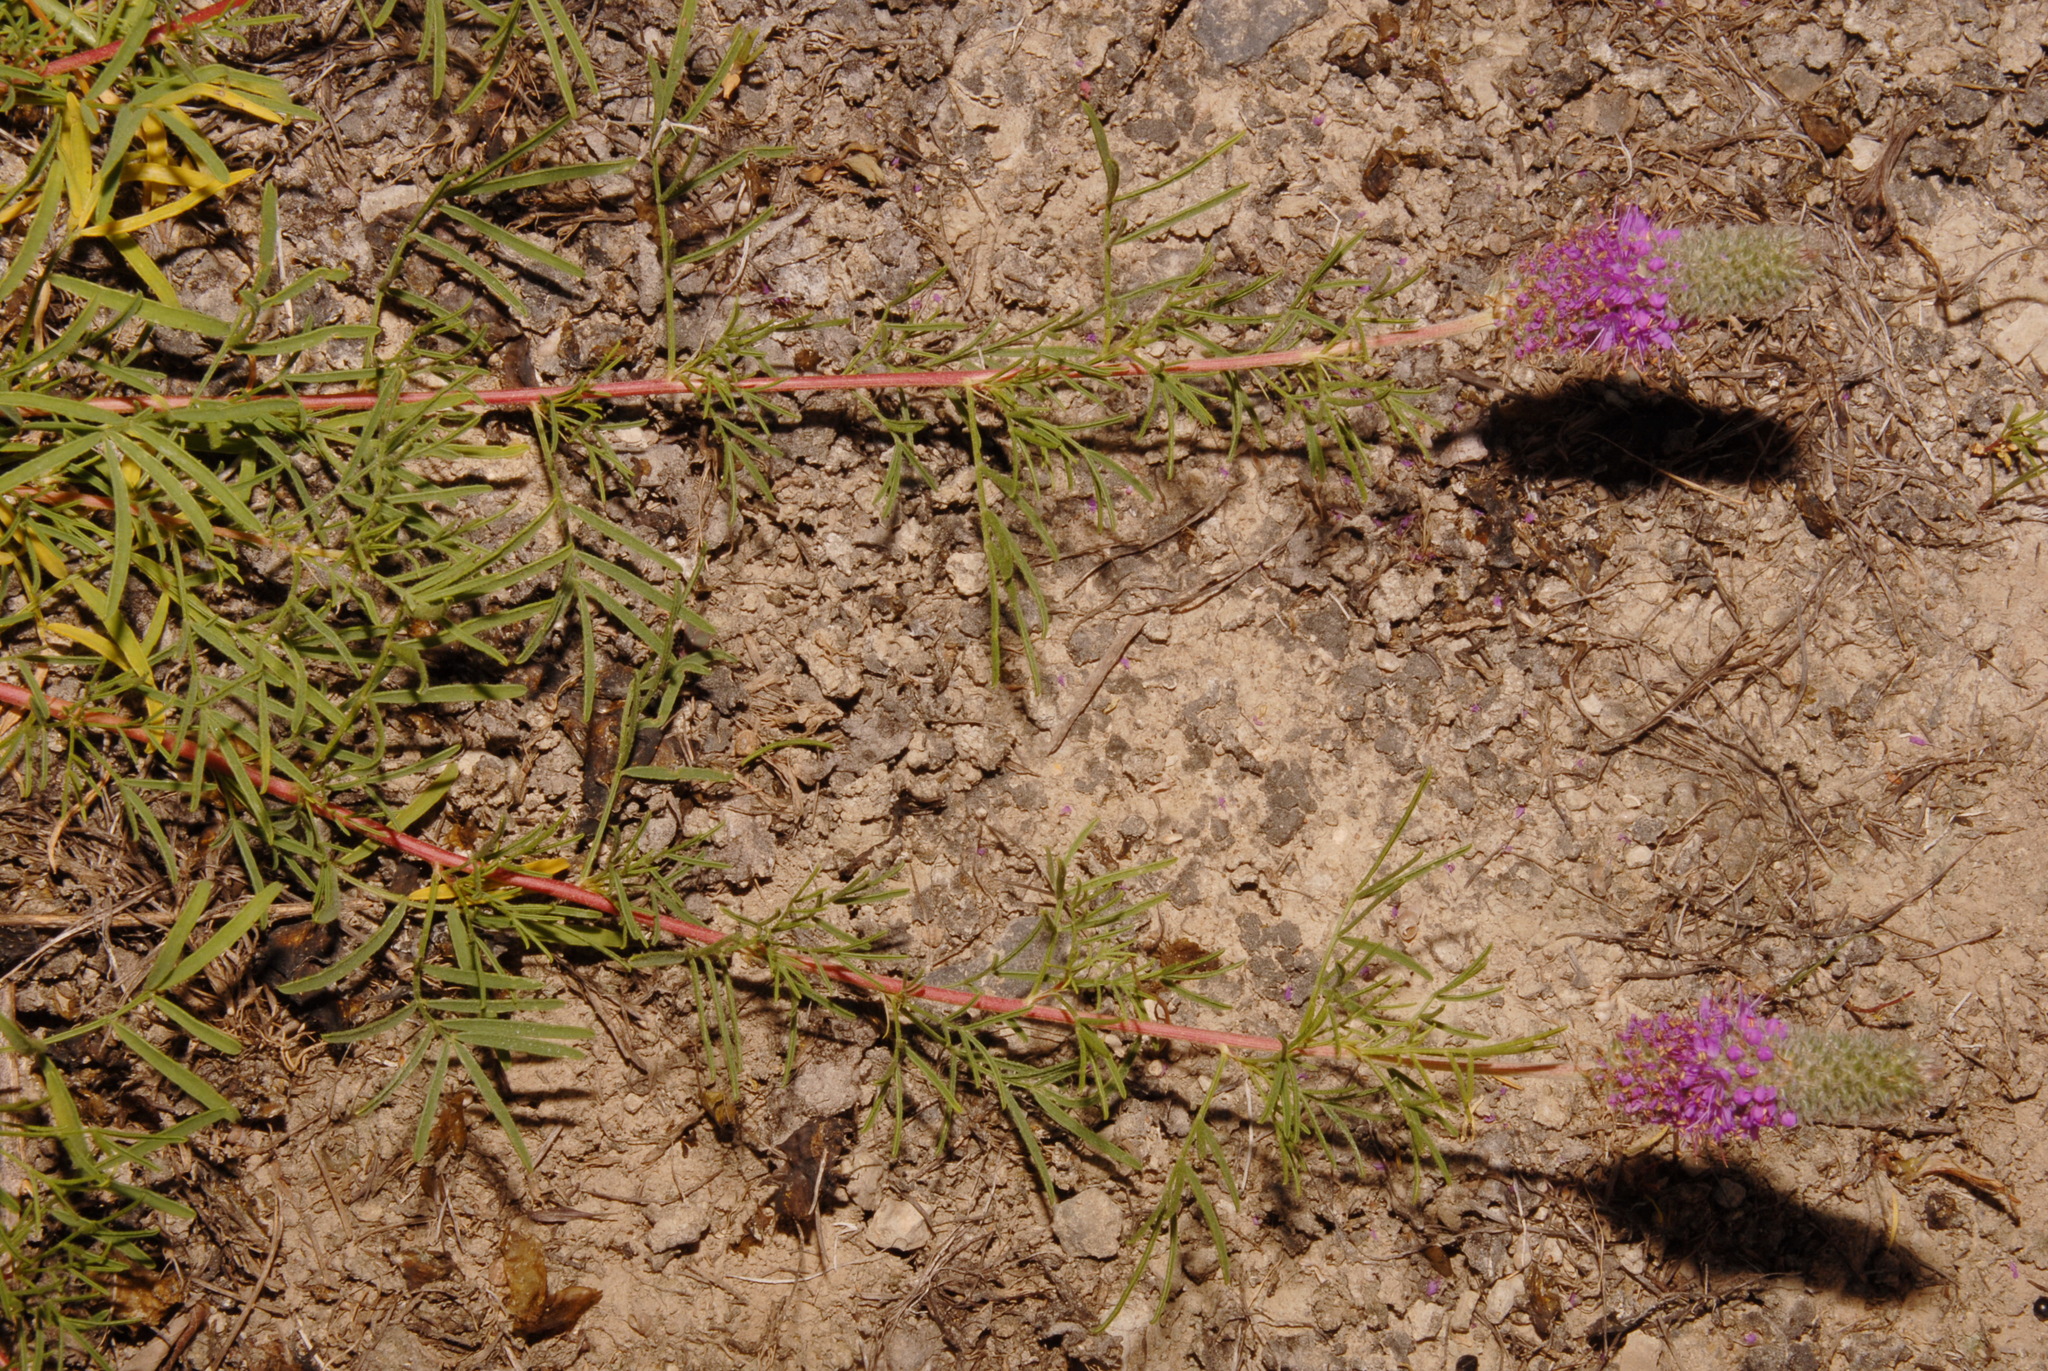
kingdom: Plantae
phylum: Tracheophyta
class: Magnoliopsida
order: Fabales
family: Fabaceae
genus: Dalea
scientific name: Dalea gattingeri
